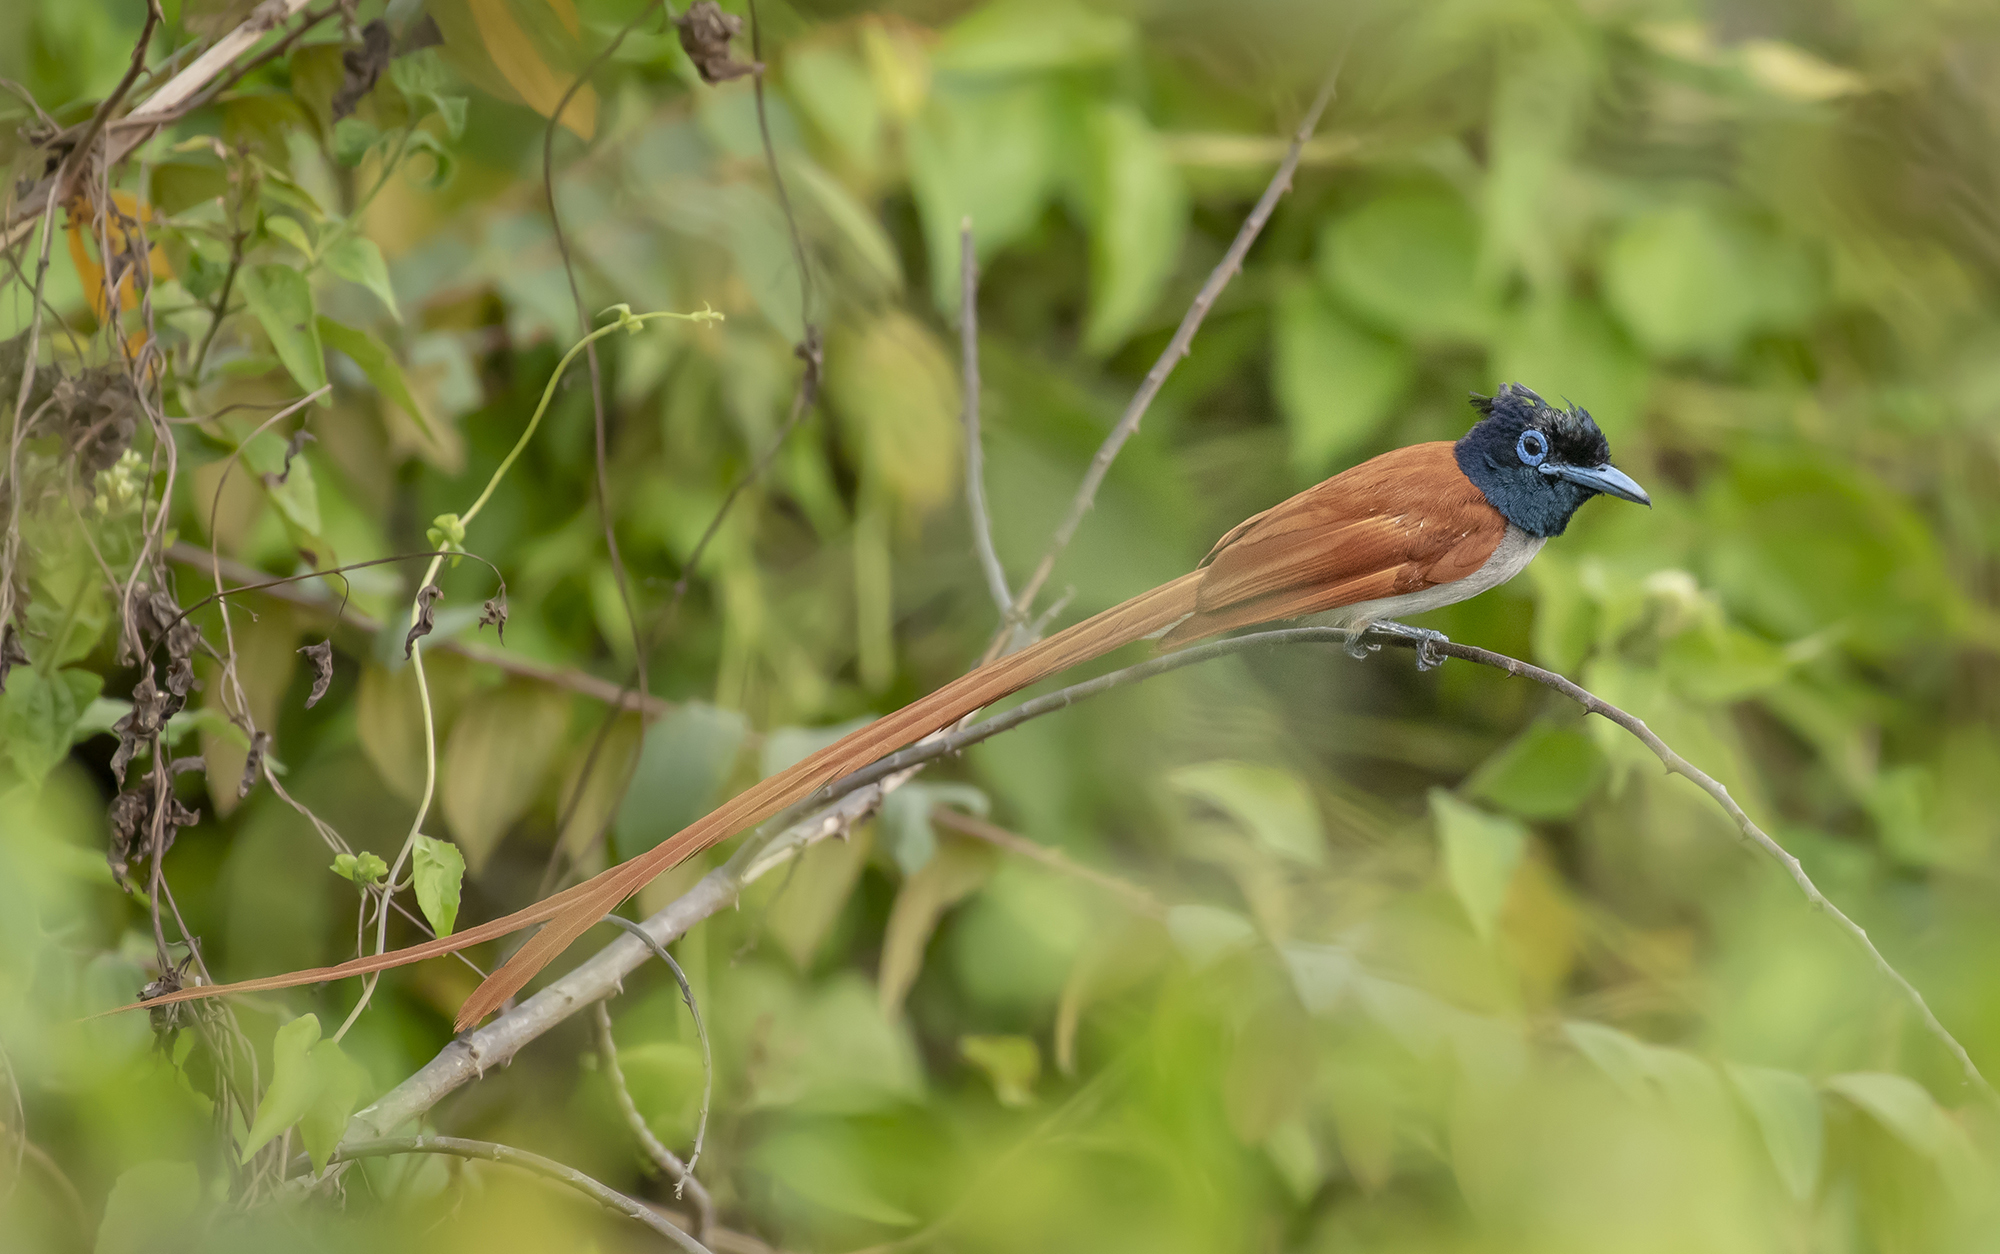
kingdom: Animalia
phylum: Chordata
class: Aves
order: Passeriformes
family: Monarchidae
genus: Terpsiphone
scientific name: Terpsiphone paradisi
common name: Indian paradise flycatcher
